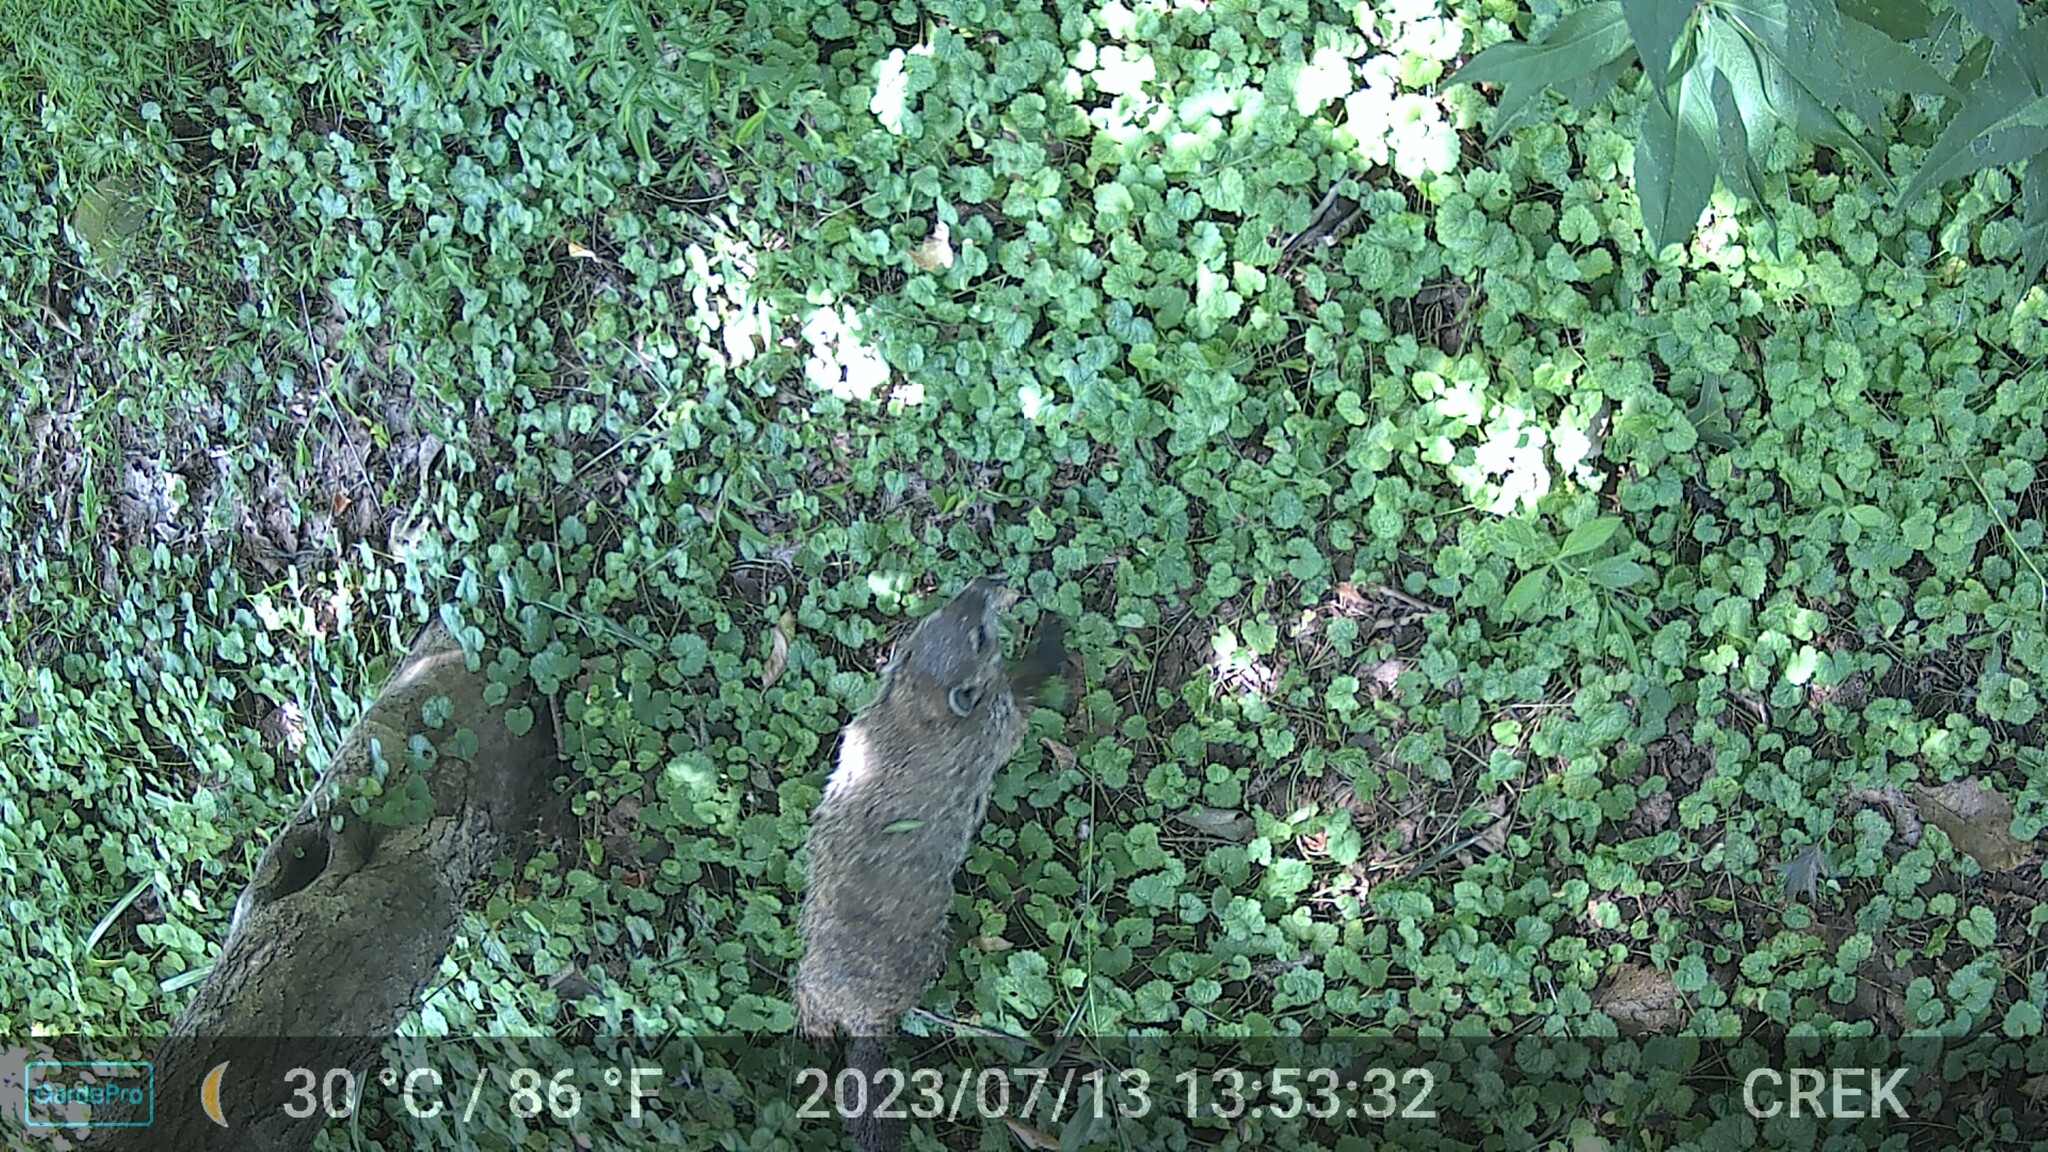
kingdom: Animalia
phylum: Chordata
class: Mammalia
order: Rodentia
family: Sciuridae
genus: Marmota
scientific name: Marmota monax
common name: Groundhog
